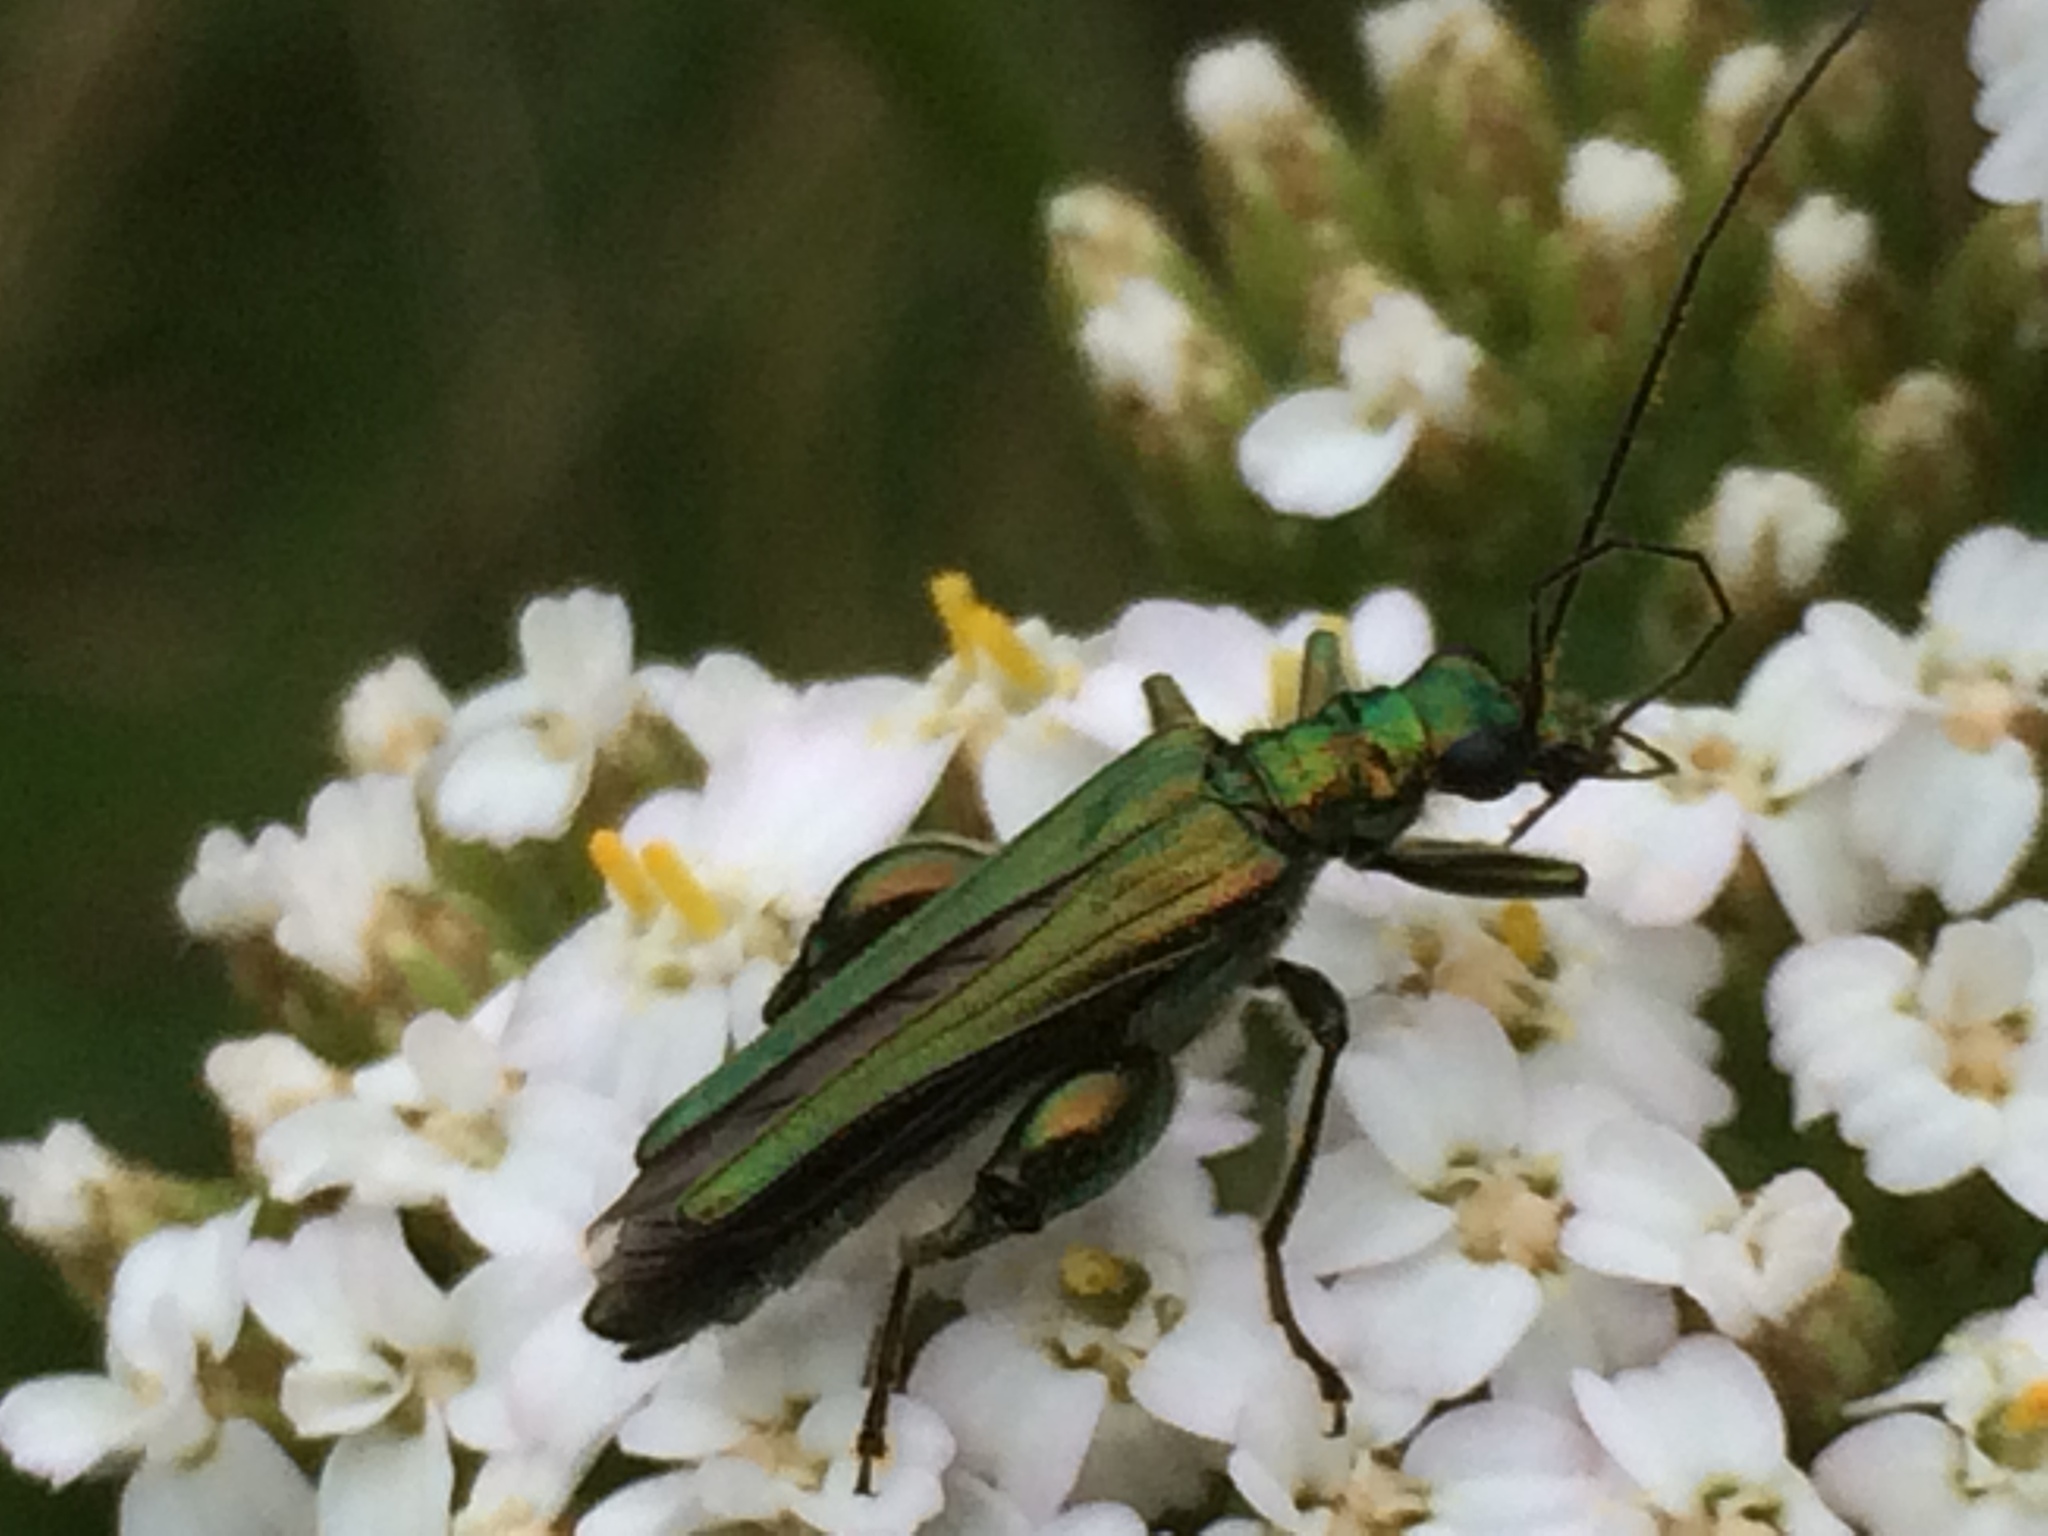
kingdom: Animalia
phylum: Arthropoda
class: Insecta
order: Coleoptera
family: Oedemeridae
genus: Oedemera
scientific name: Oedemera nobilis
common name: Swollen-thighed beetle
